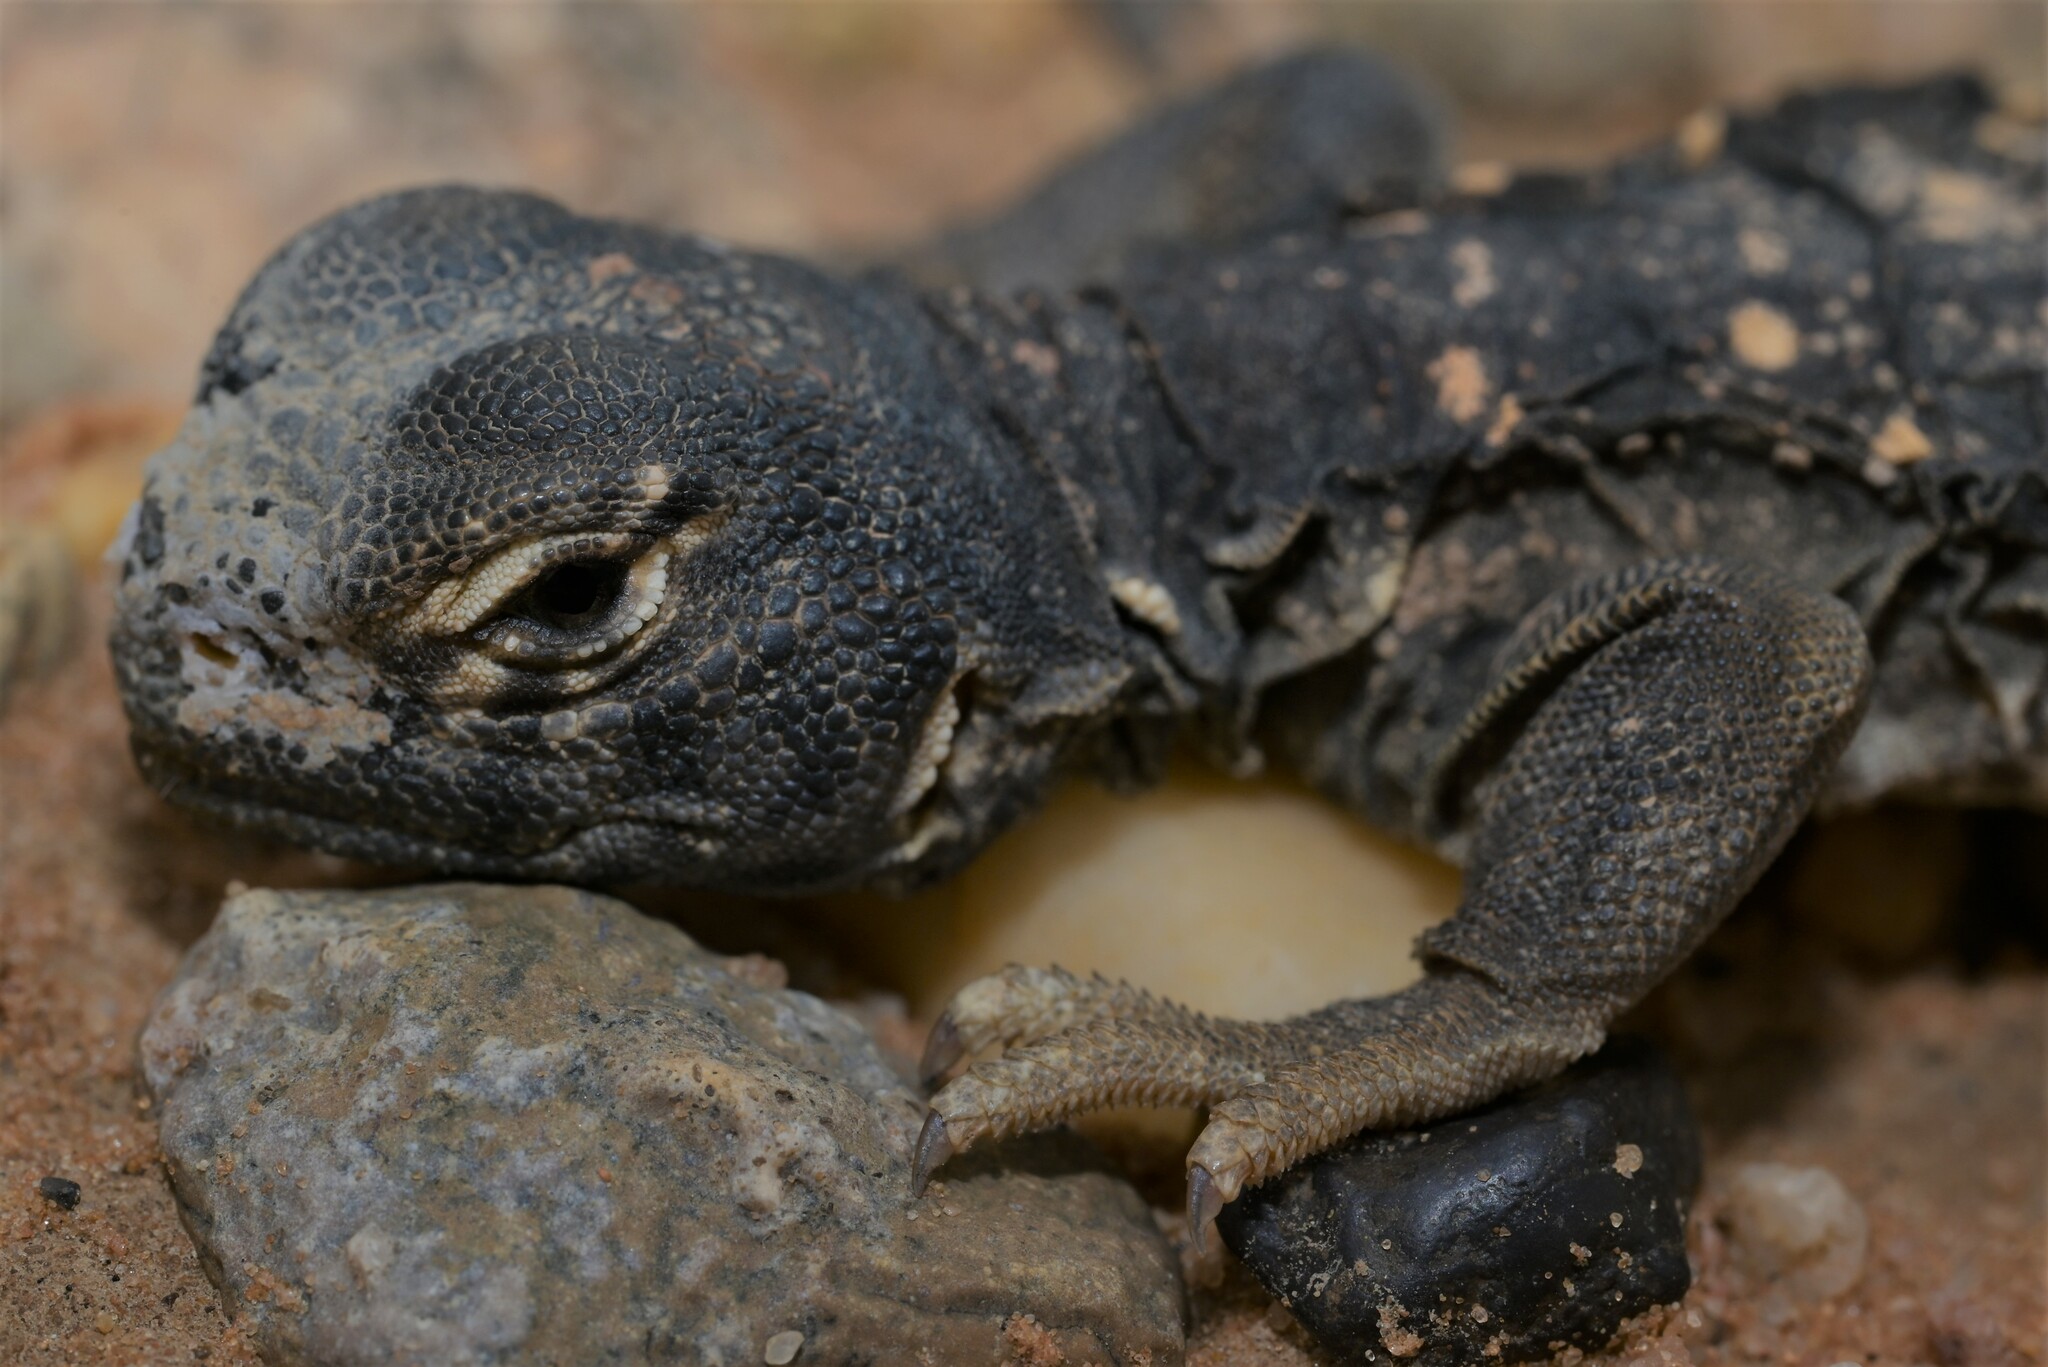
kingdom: Animalia
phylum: Chordata
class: Squamata
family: Agamidae
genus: Uromastyx
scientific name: Uromastyx aegyptia
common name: Egyptian mastigure
